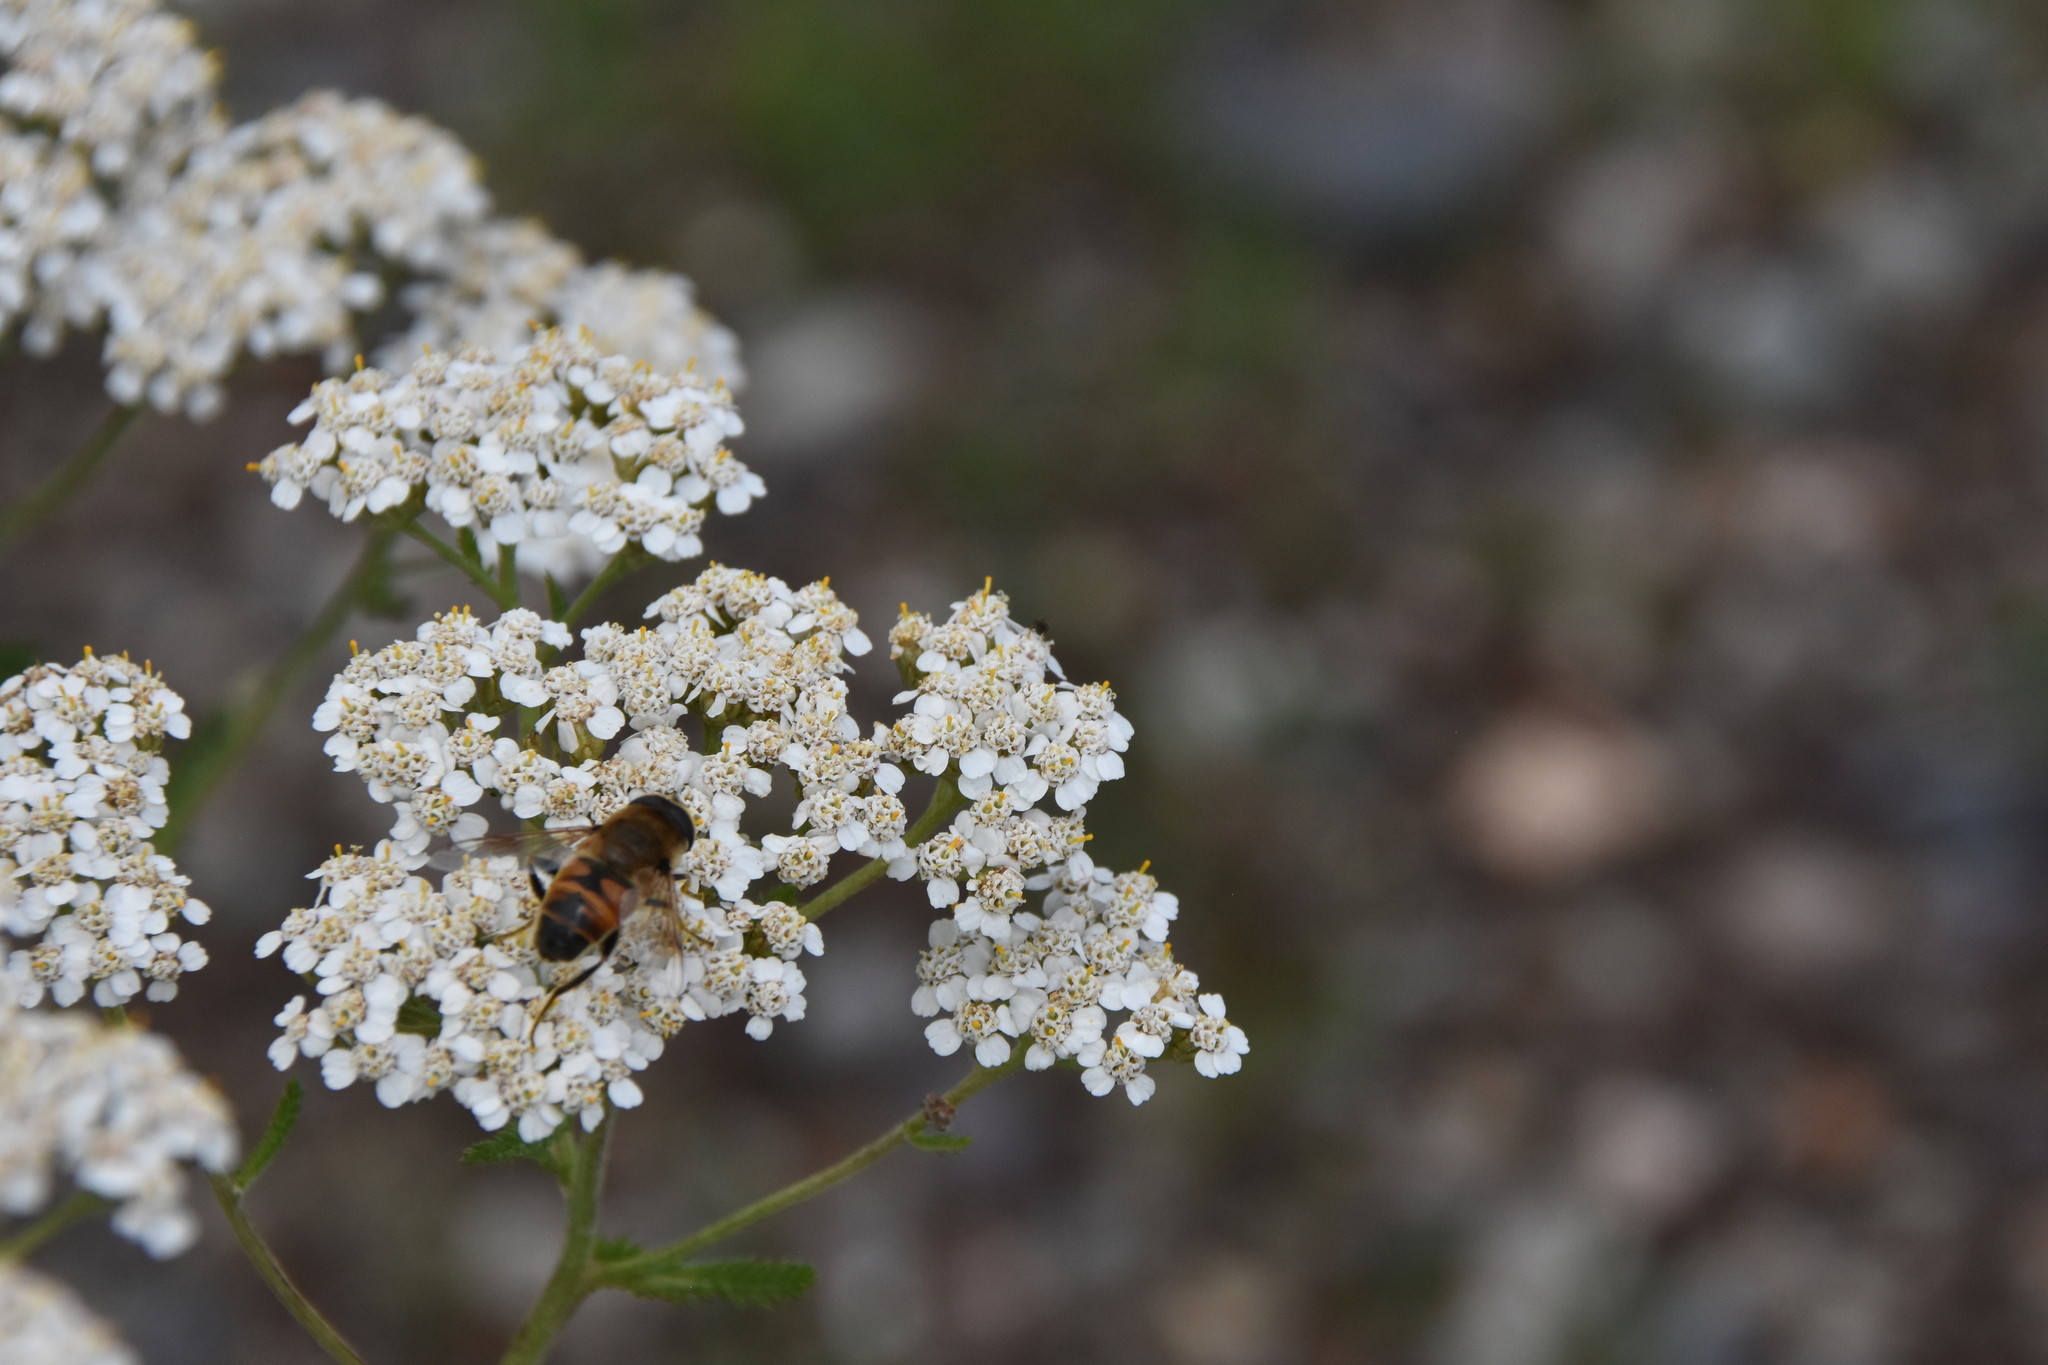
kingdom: Animalia
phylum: Arthropoda
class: Insecta
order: Diptera
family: Syrphidae
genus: Eristalis
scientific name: Eristalis tenax
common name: Drone fly
